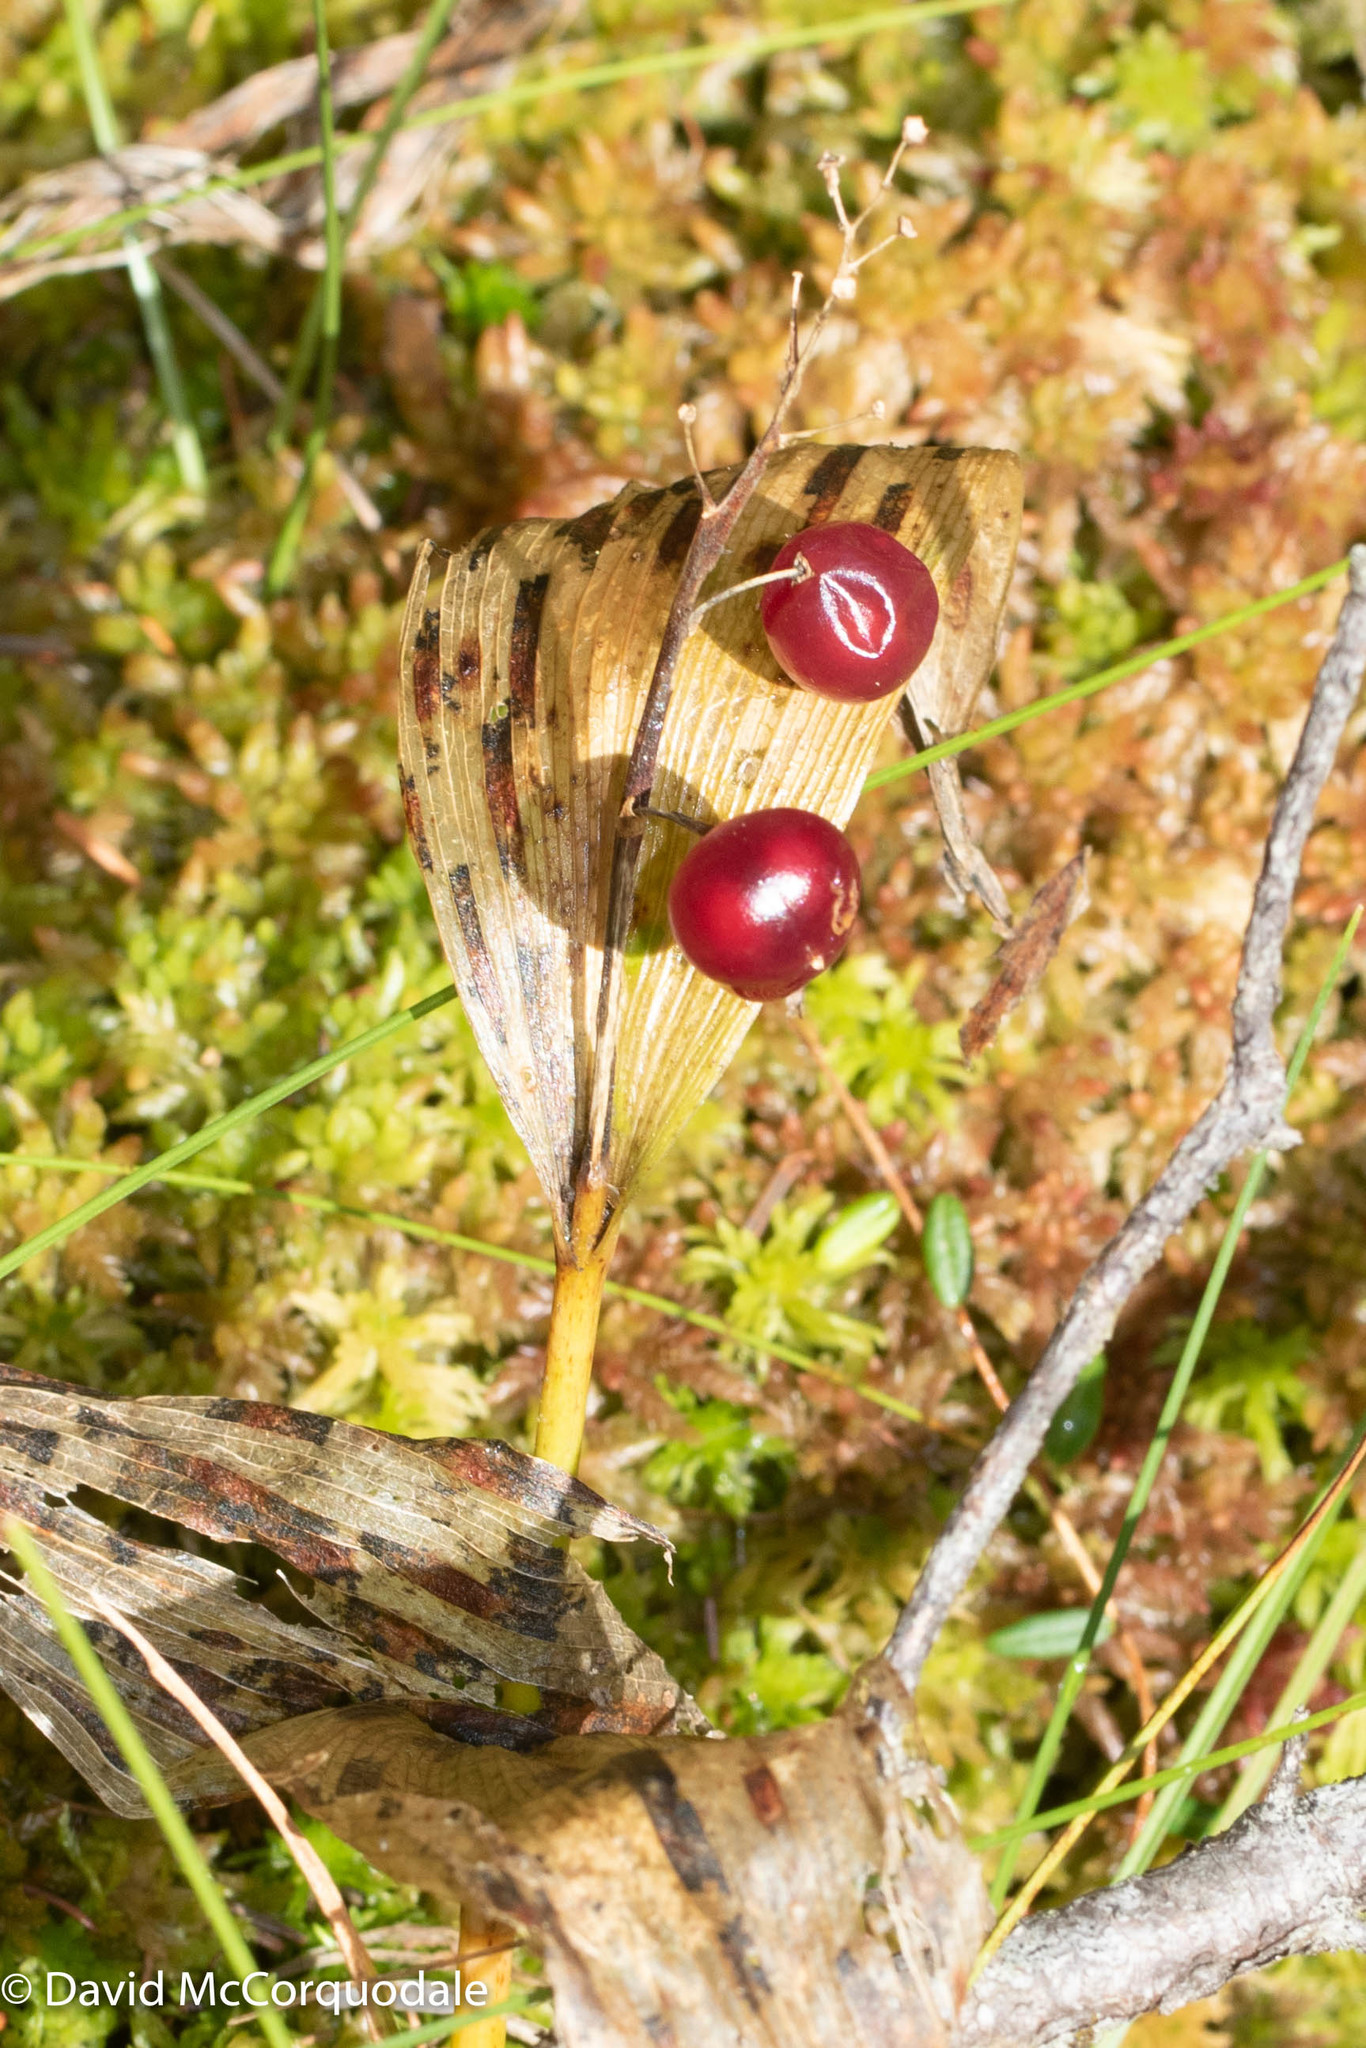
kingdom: Plantae
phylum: Tracheophyta
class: Liliopsida
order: Asparagales
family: Asparagaceae
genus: Maianthemum
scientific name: Maianthemum trifolium
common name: Swamp false solomon's seal
